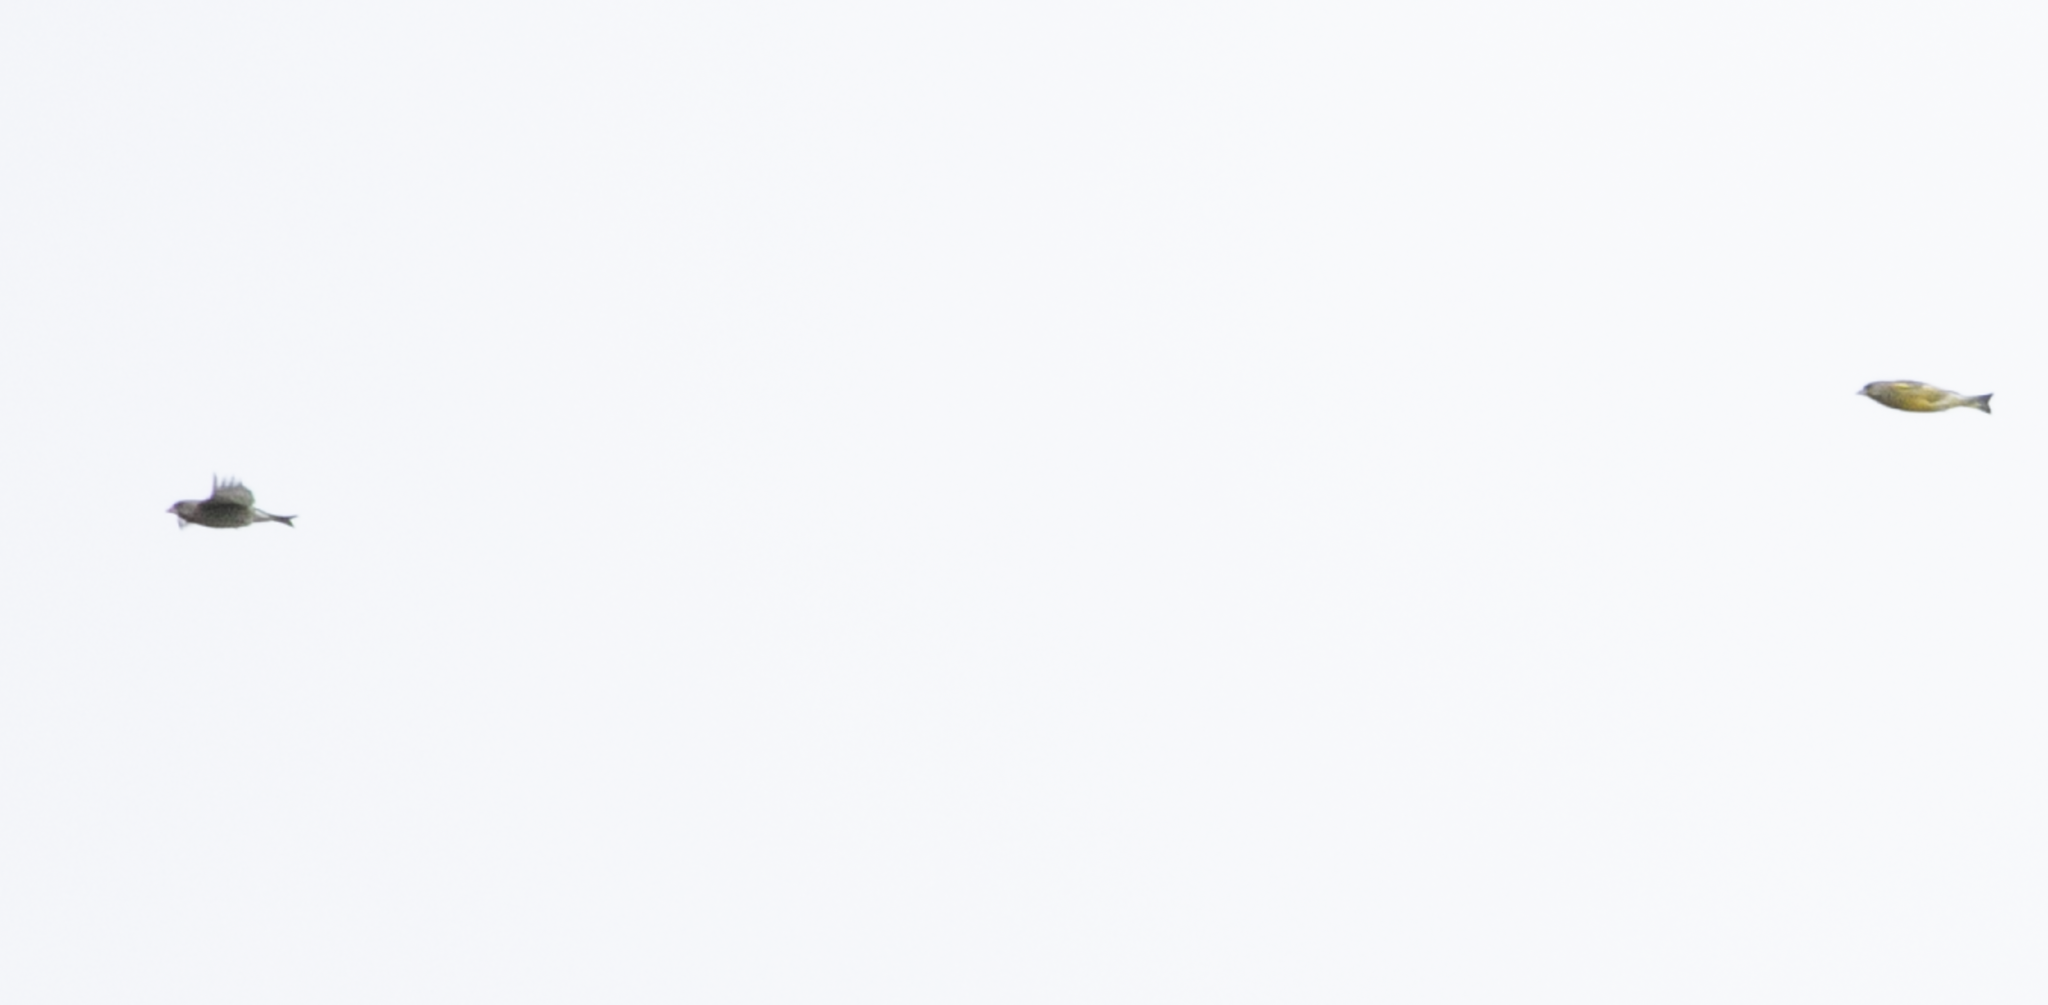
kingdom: Plantae
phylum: Tracheophyta
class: Liliopsida
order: Poales
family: Poaceae
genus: Chloris
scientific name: Chloris chloris
